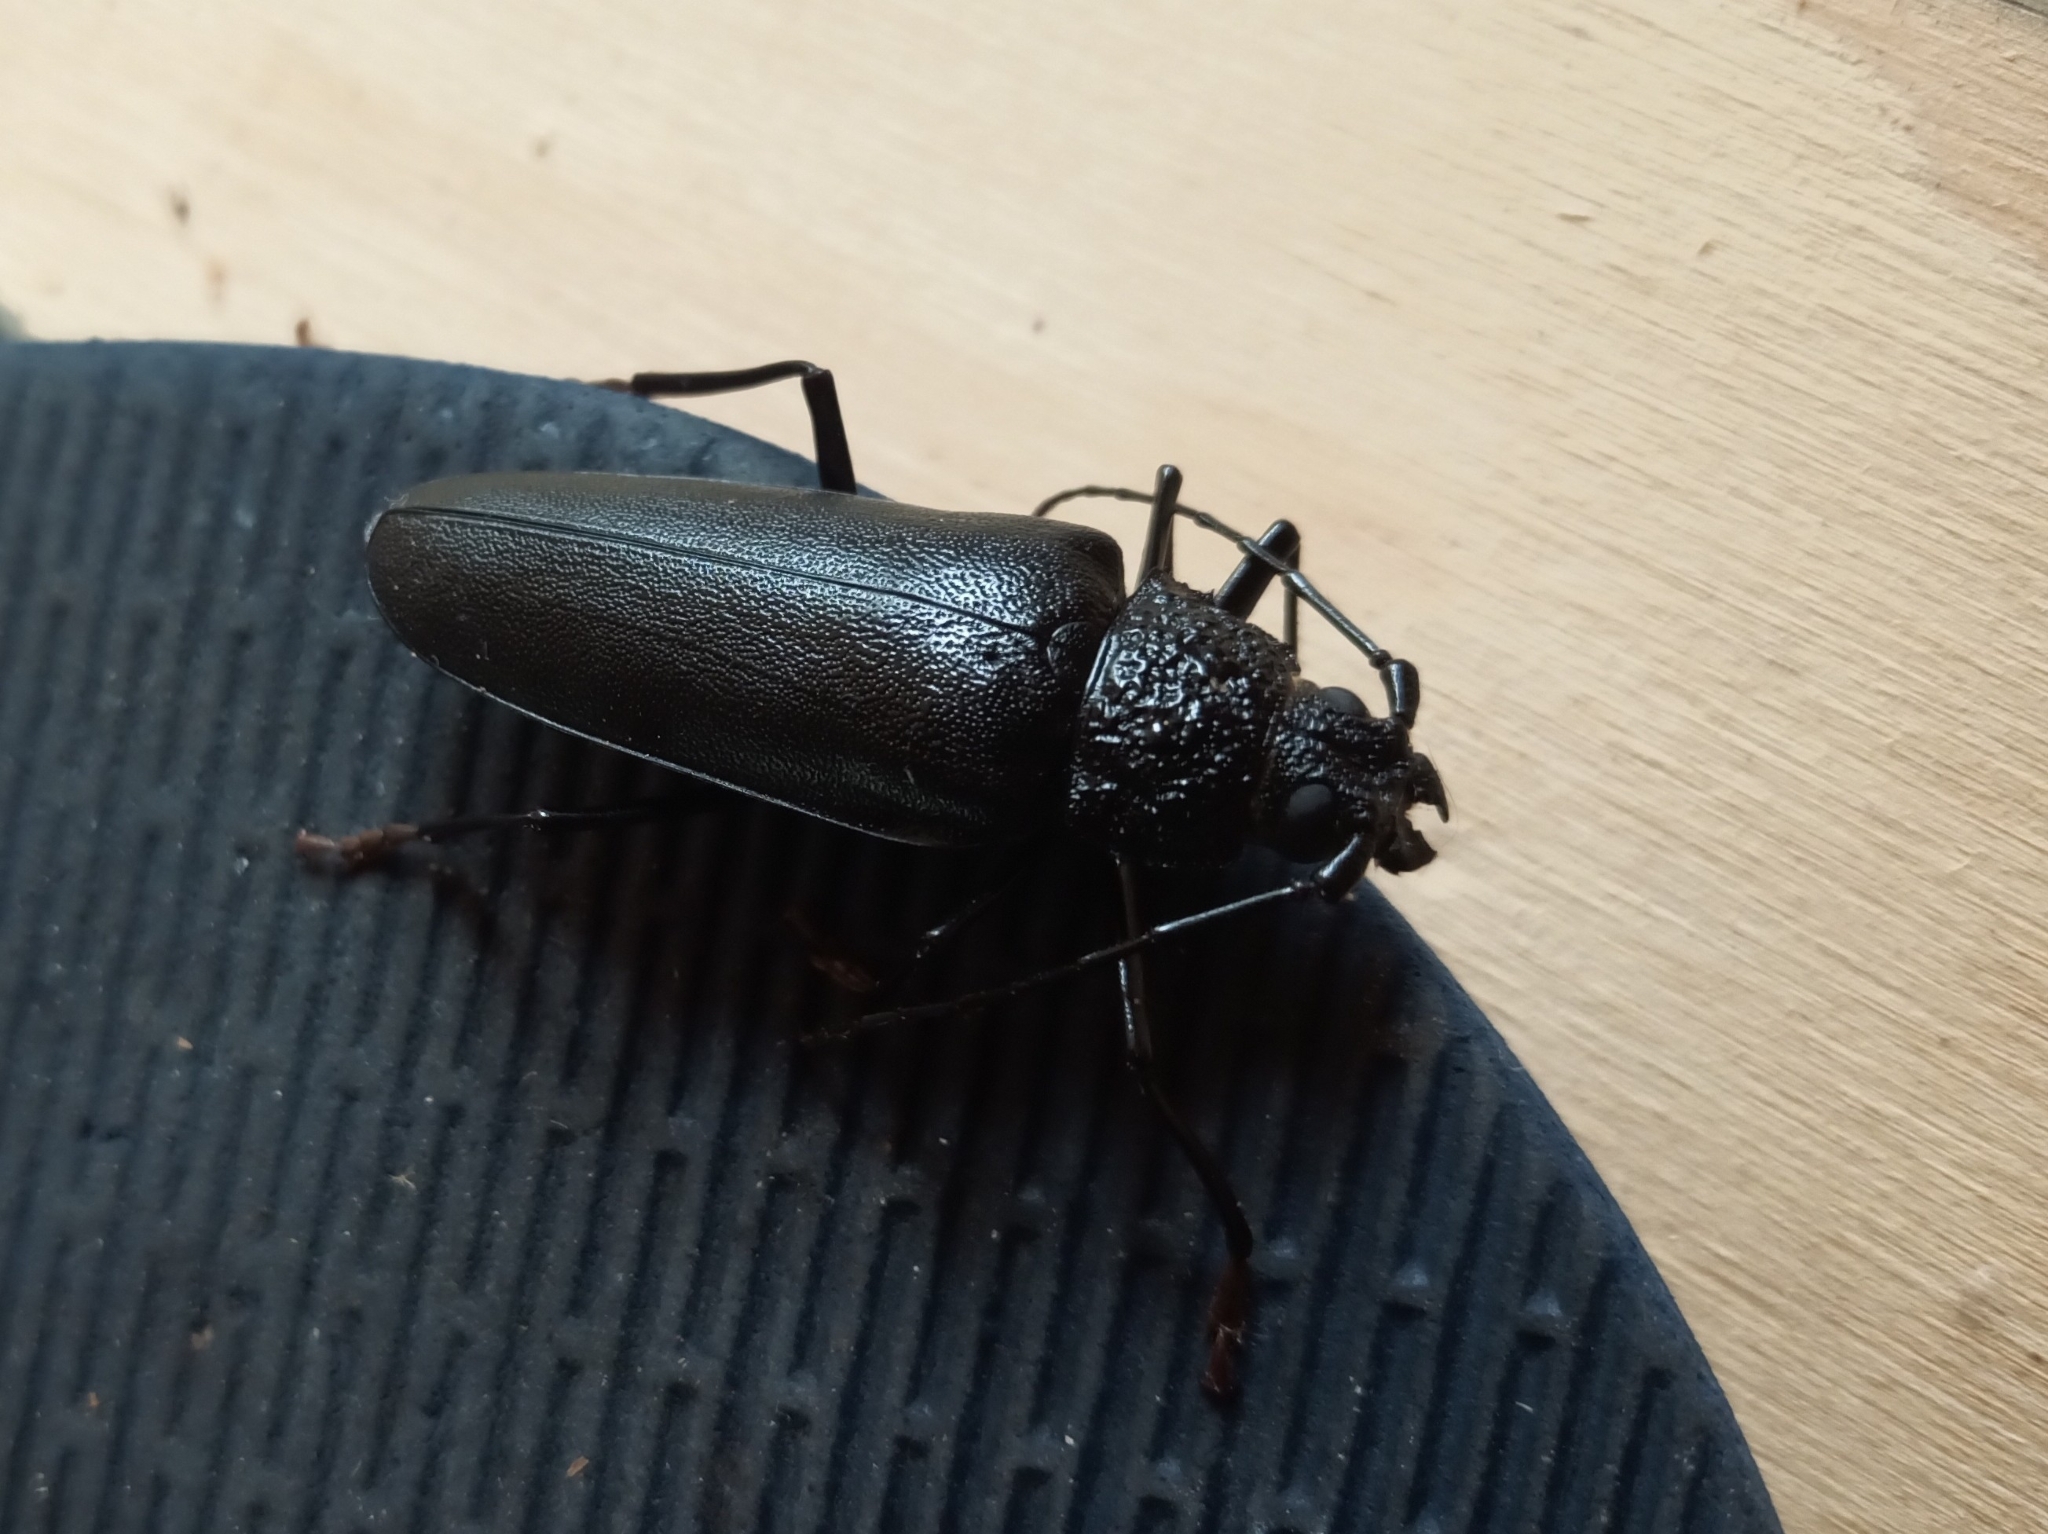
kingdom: Animalia
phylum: Arthropoda
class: Insecta
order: Coleoptera
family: Cerambycidae
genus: Ergates
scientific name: Ergates faber
